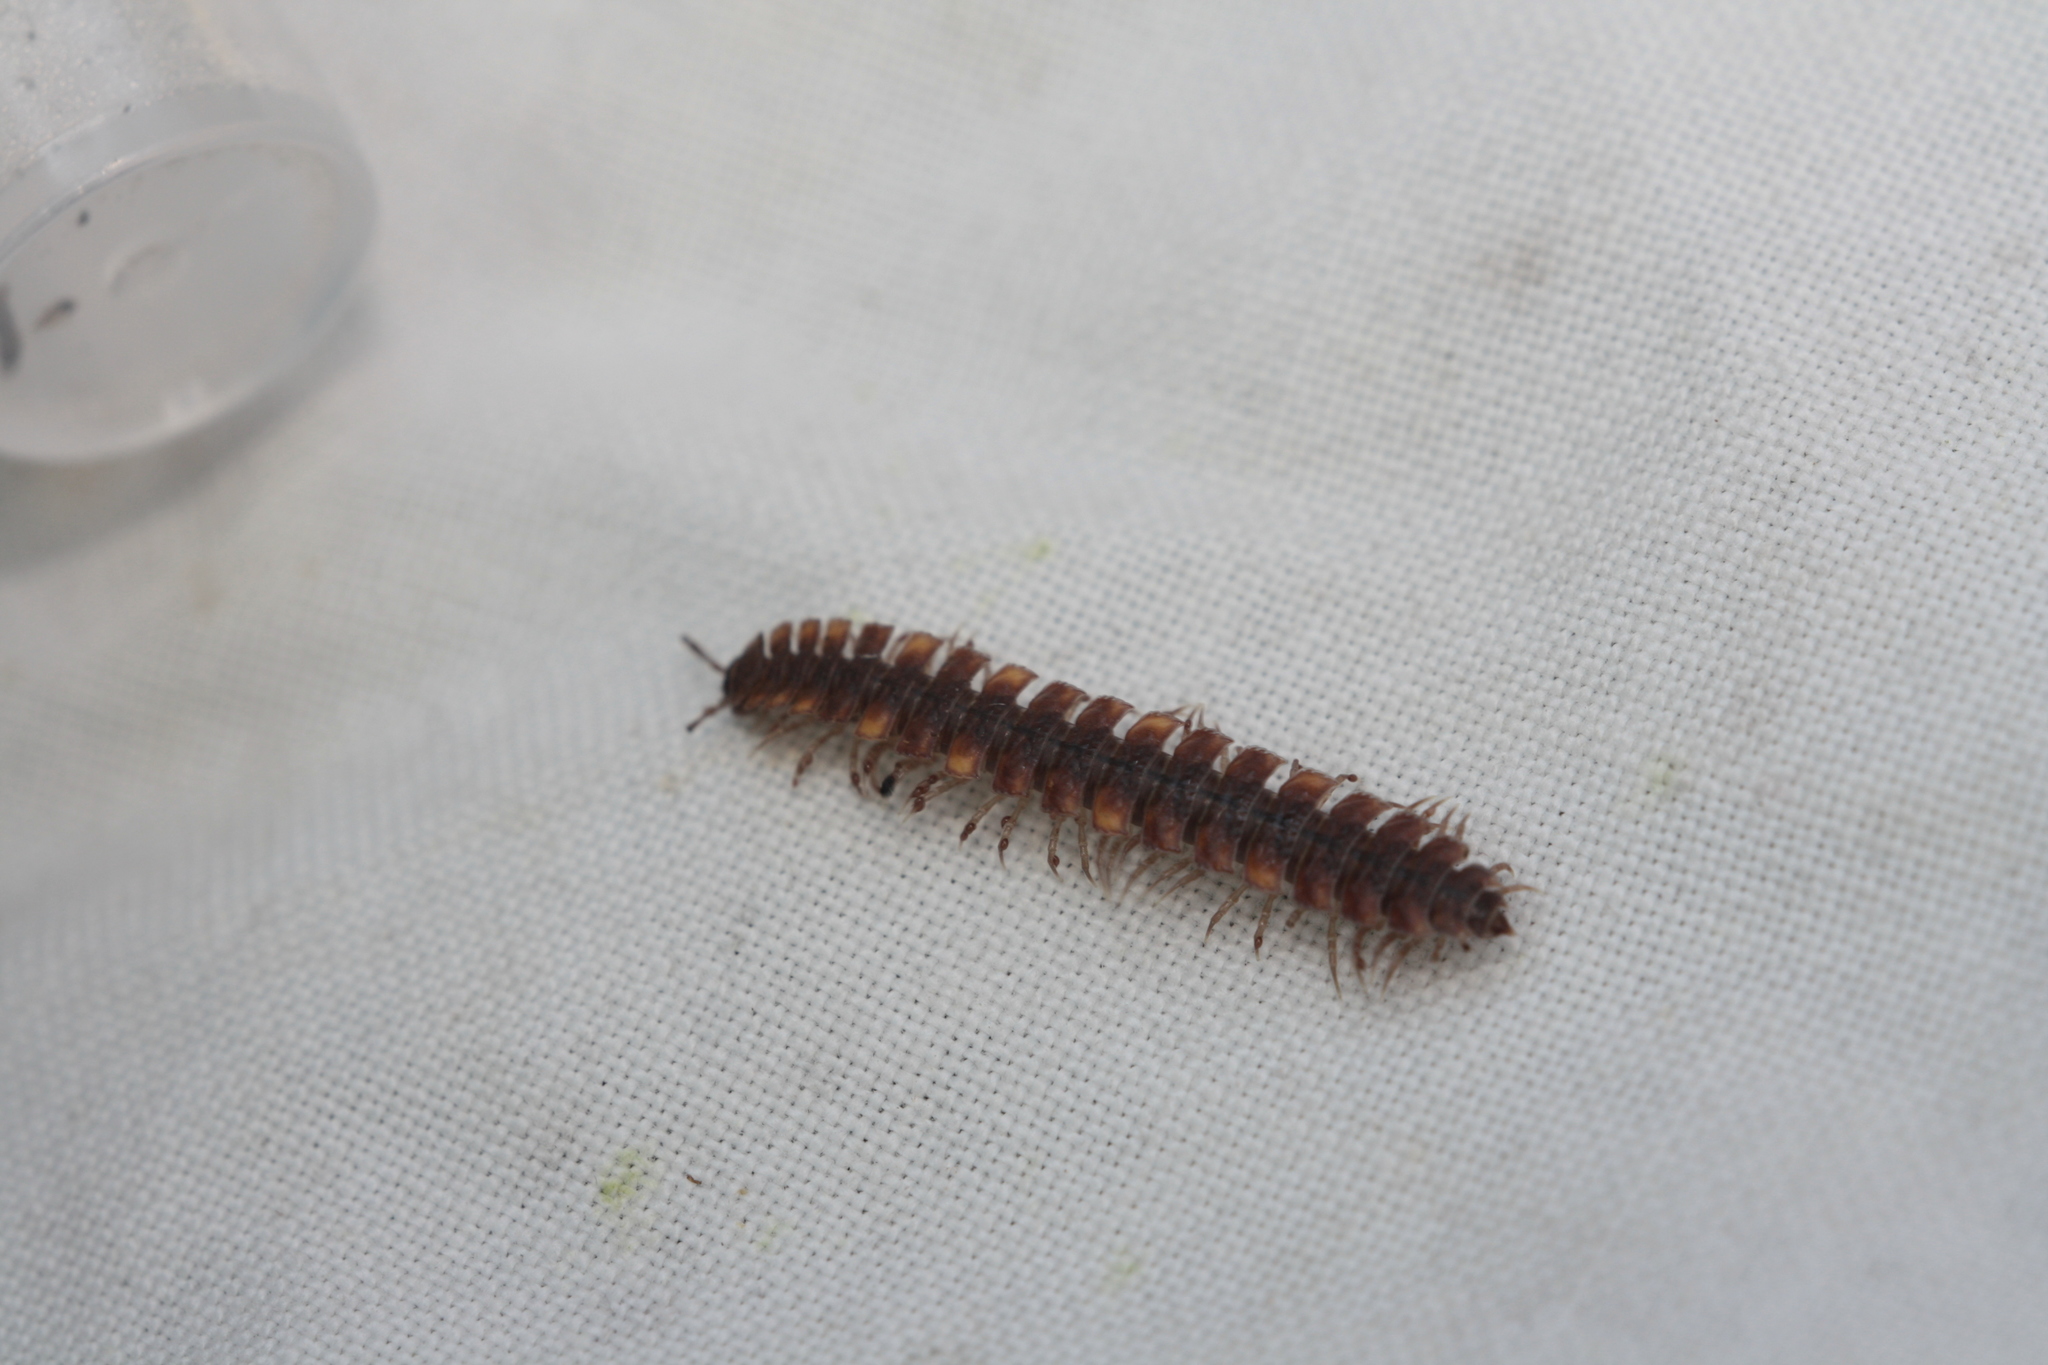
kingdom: Animalia
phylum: Arthropoda
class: Diplopoda
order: Polydesmida
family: Polydesmidae
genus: Polydesmus
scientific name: Polydesmus complanatus
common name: Flat-backed millipede
